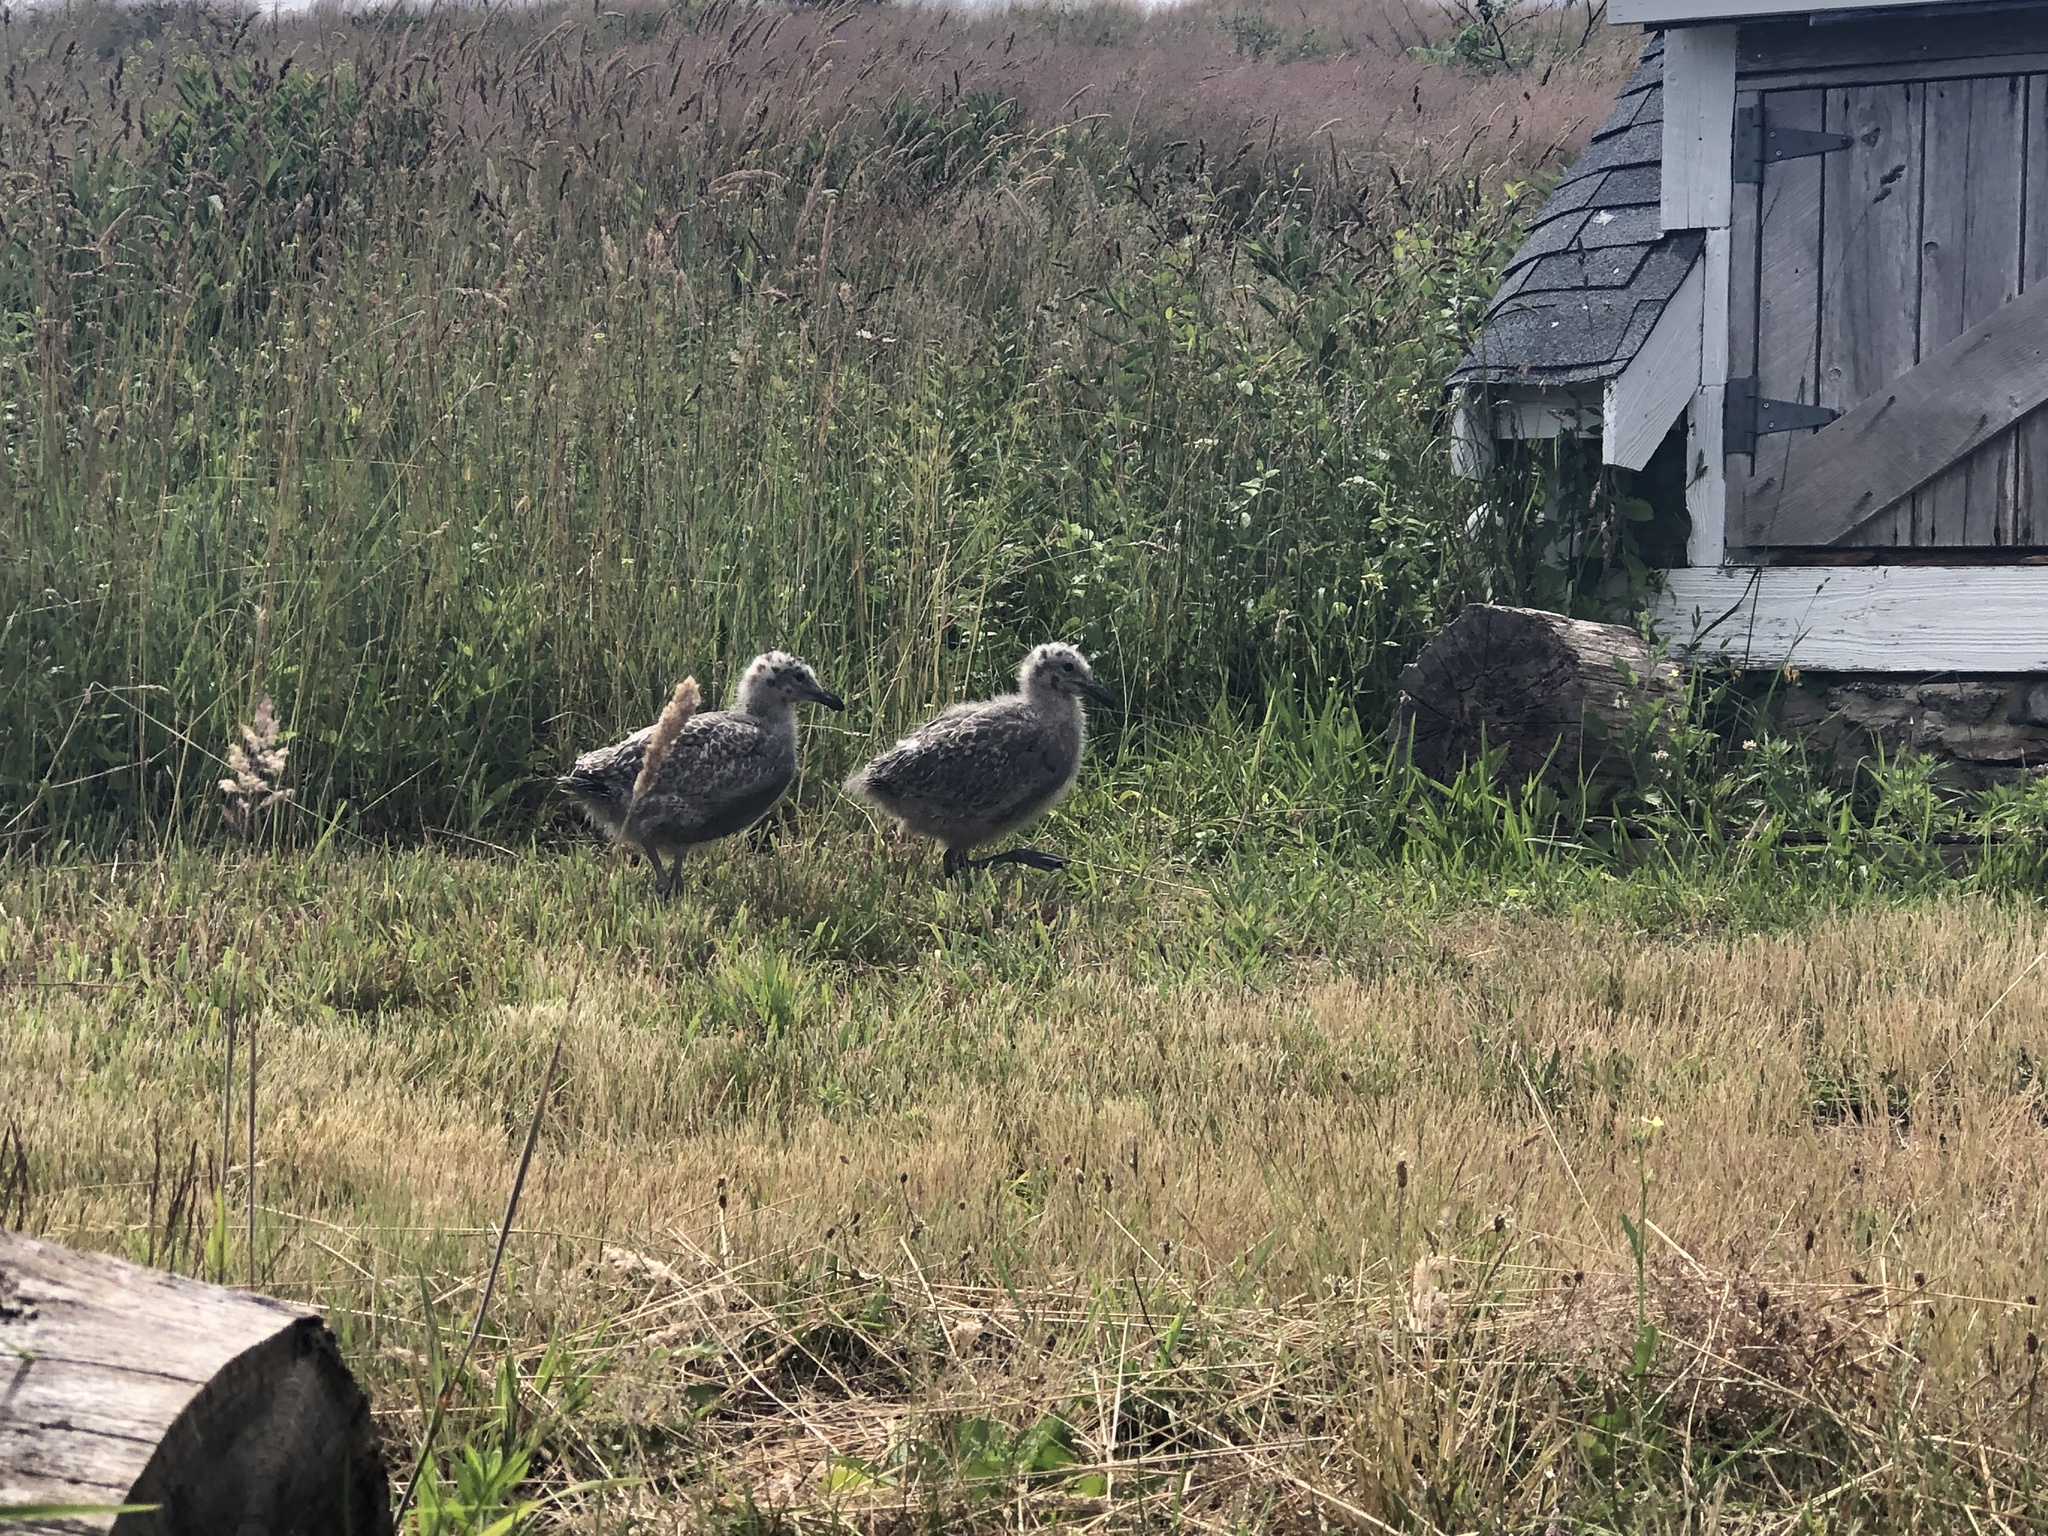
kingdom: Animalia
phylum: Chordata
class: Aves
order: Charadriiformes
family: Laridae
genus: Larus
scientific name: Larus argentatus
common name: Herring gull
